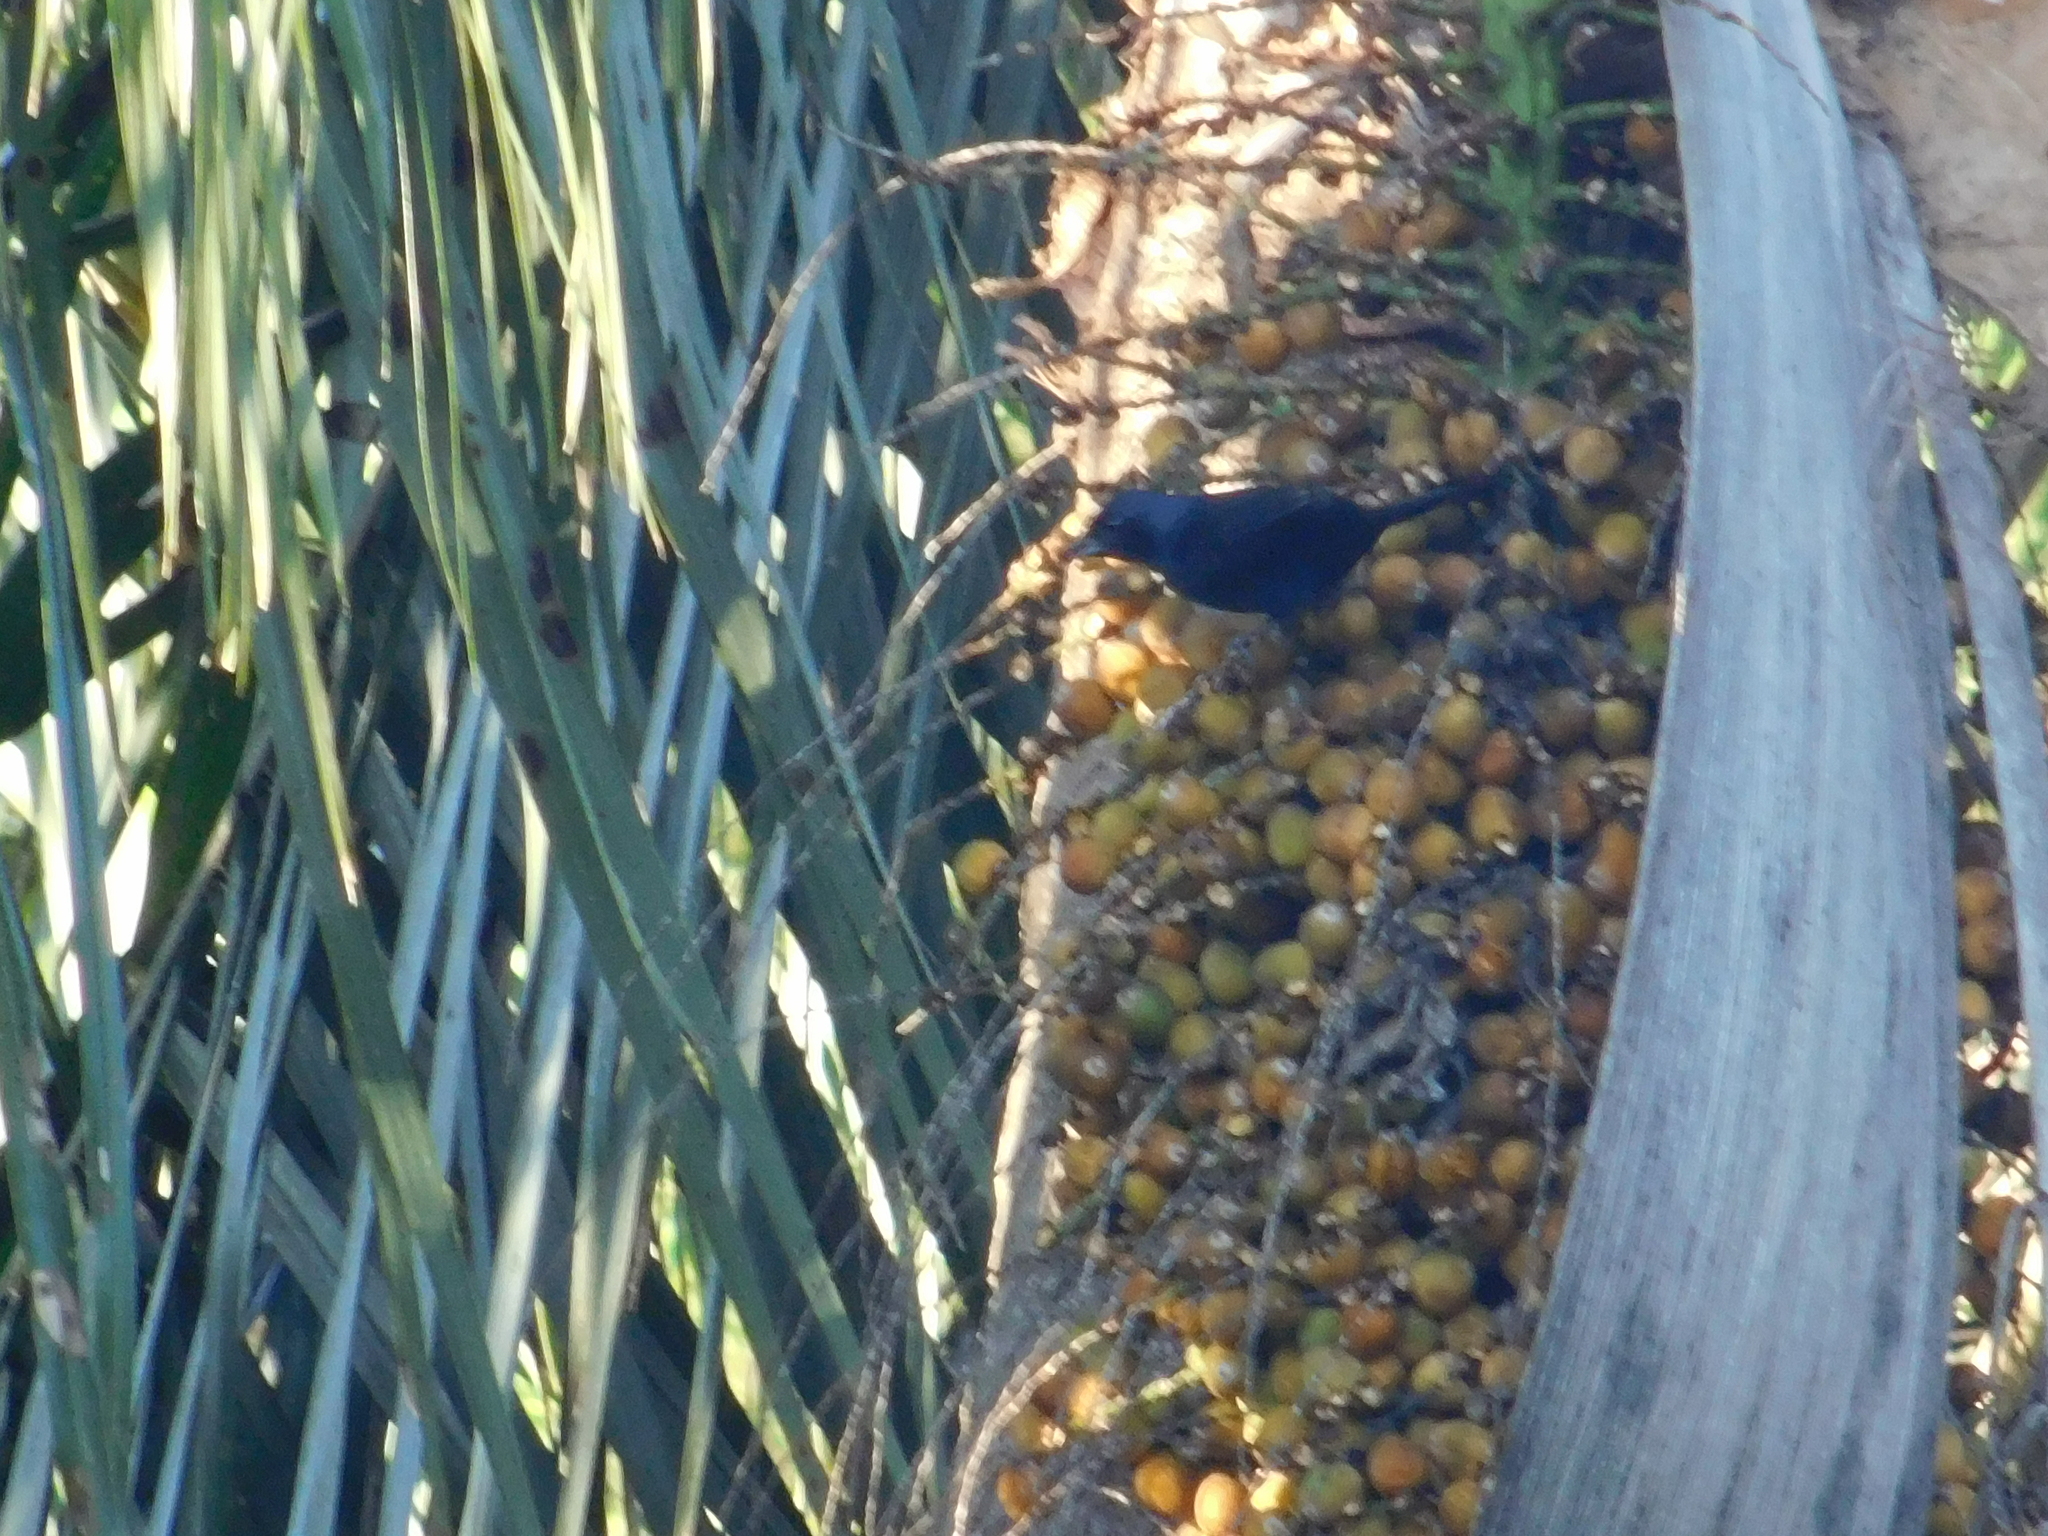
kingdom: Animalia
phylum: Chordata
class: Aves
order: Passeriformes
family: Thraupidae
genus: Tachyphonus
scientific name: Tachyphonus coronatus
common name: Ruby-crowned tanager
